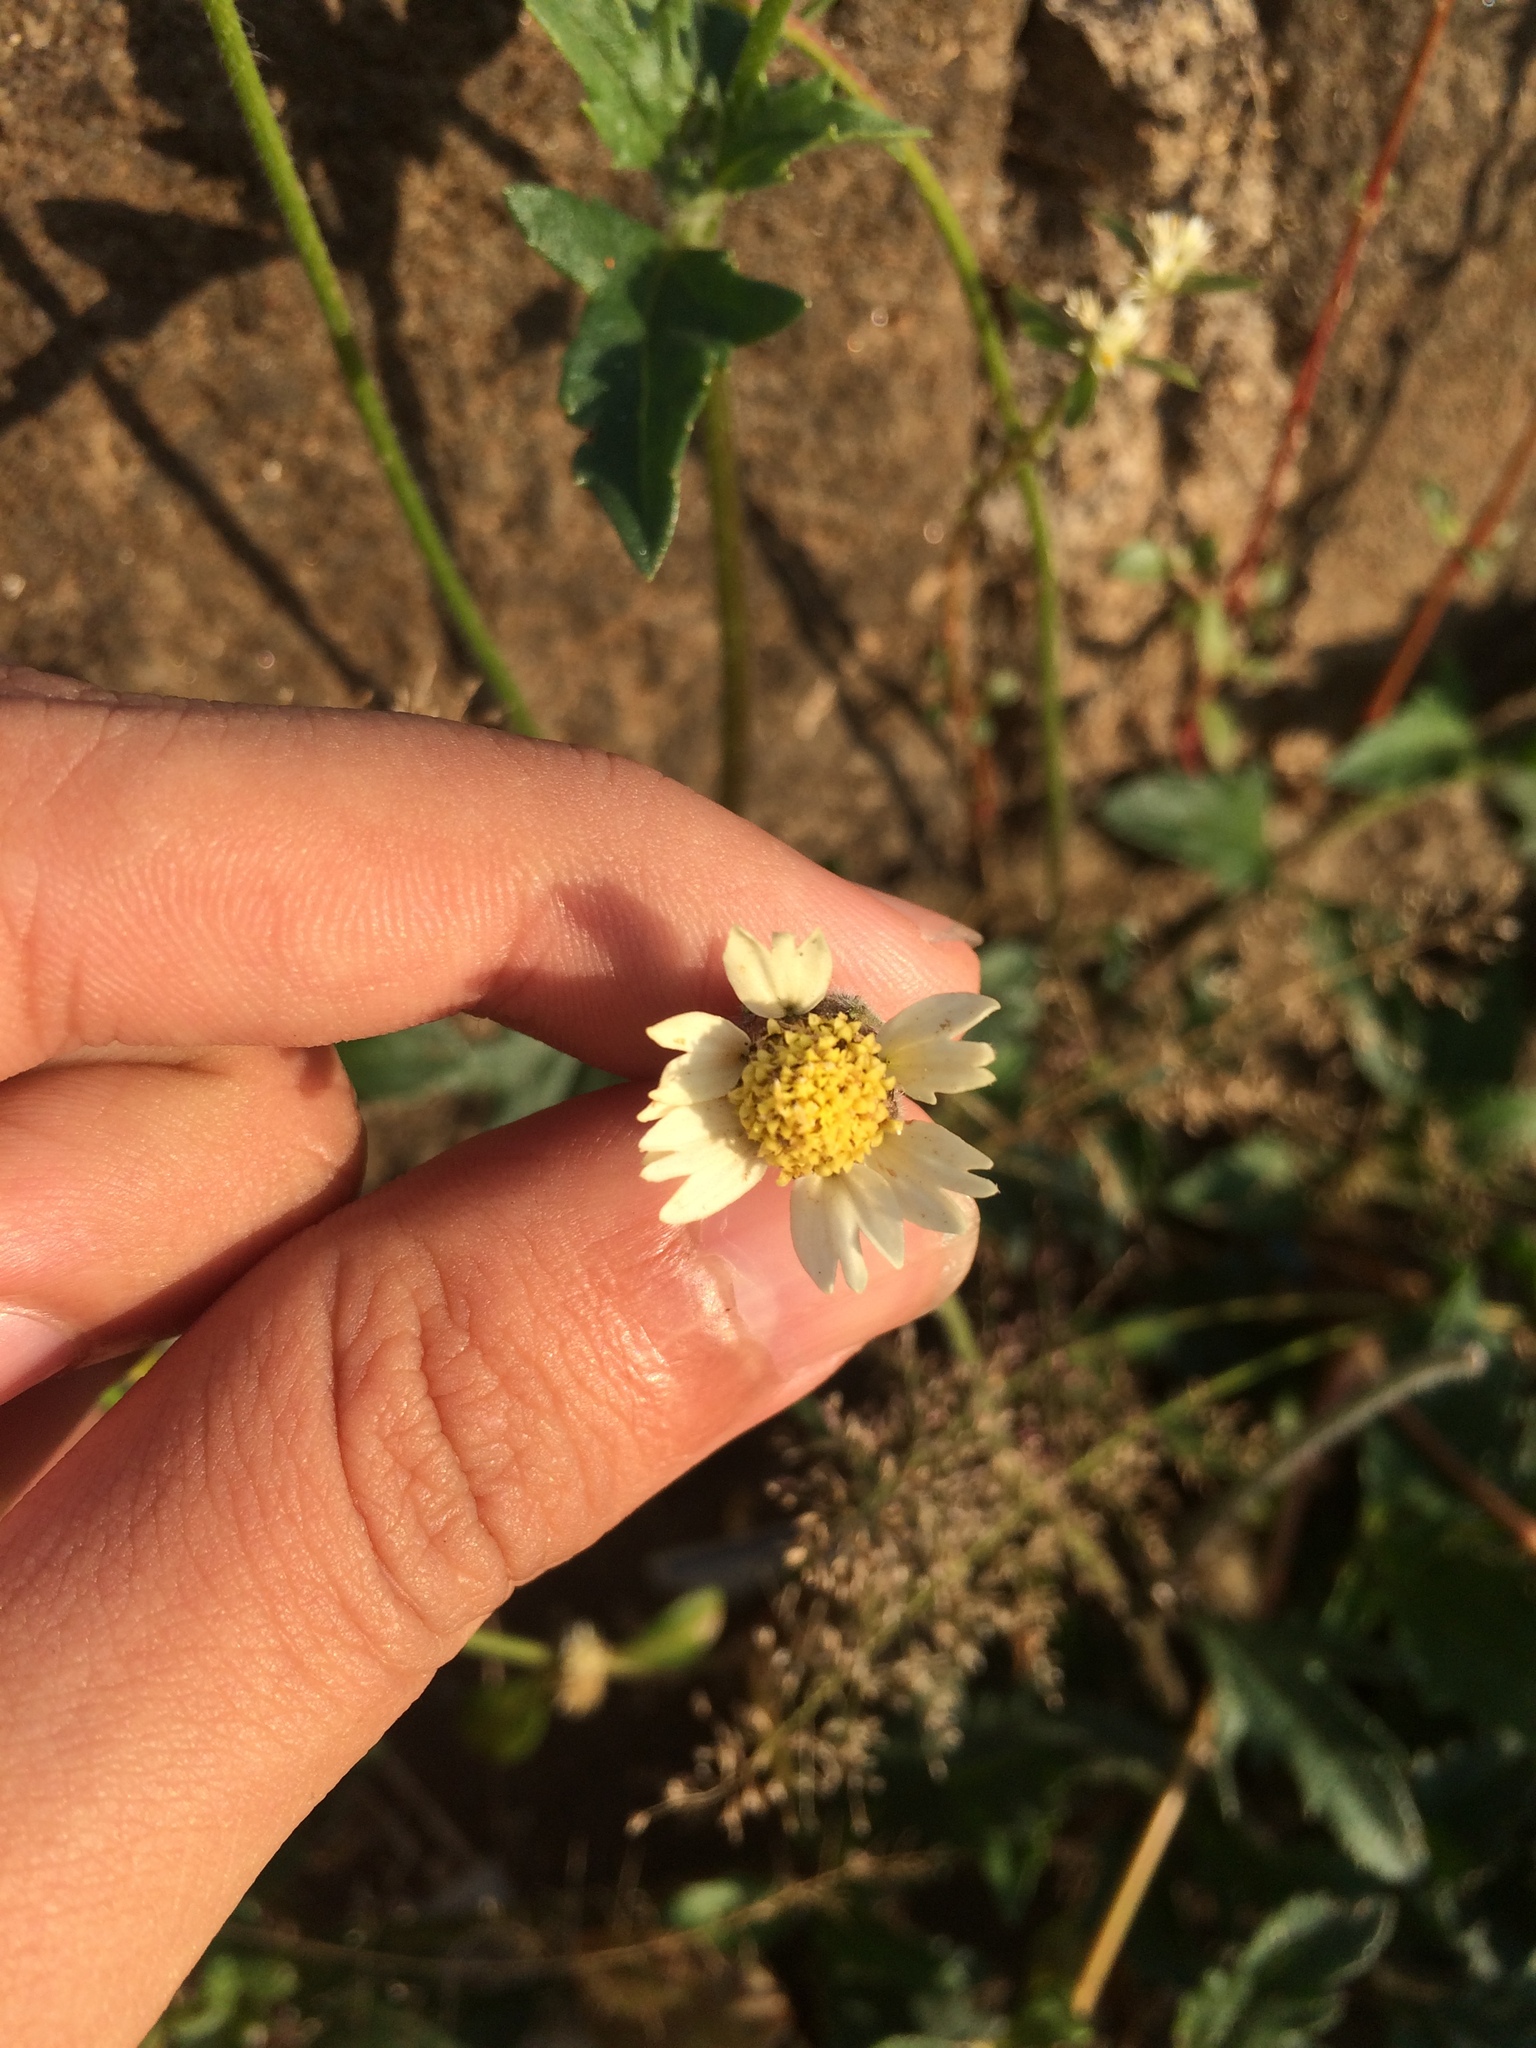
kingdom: Plantae
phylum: Tracheophyta
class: Magnoliopsida
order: Asterales
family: Asteraceae
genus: Tridax
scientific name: Tridax procumbens
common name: Coatbuttons
